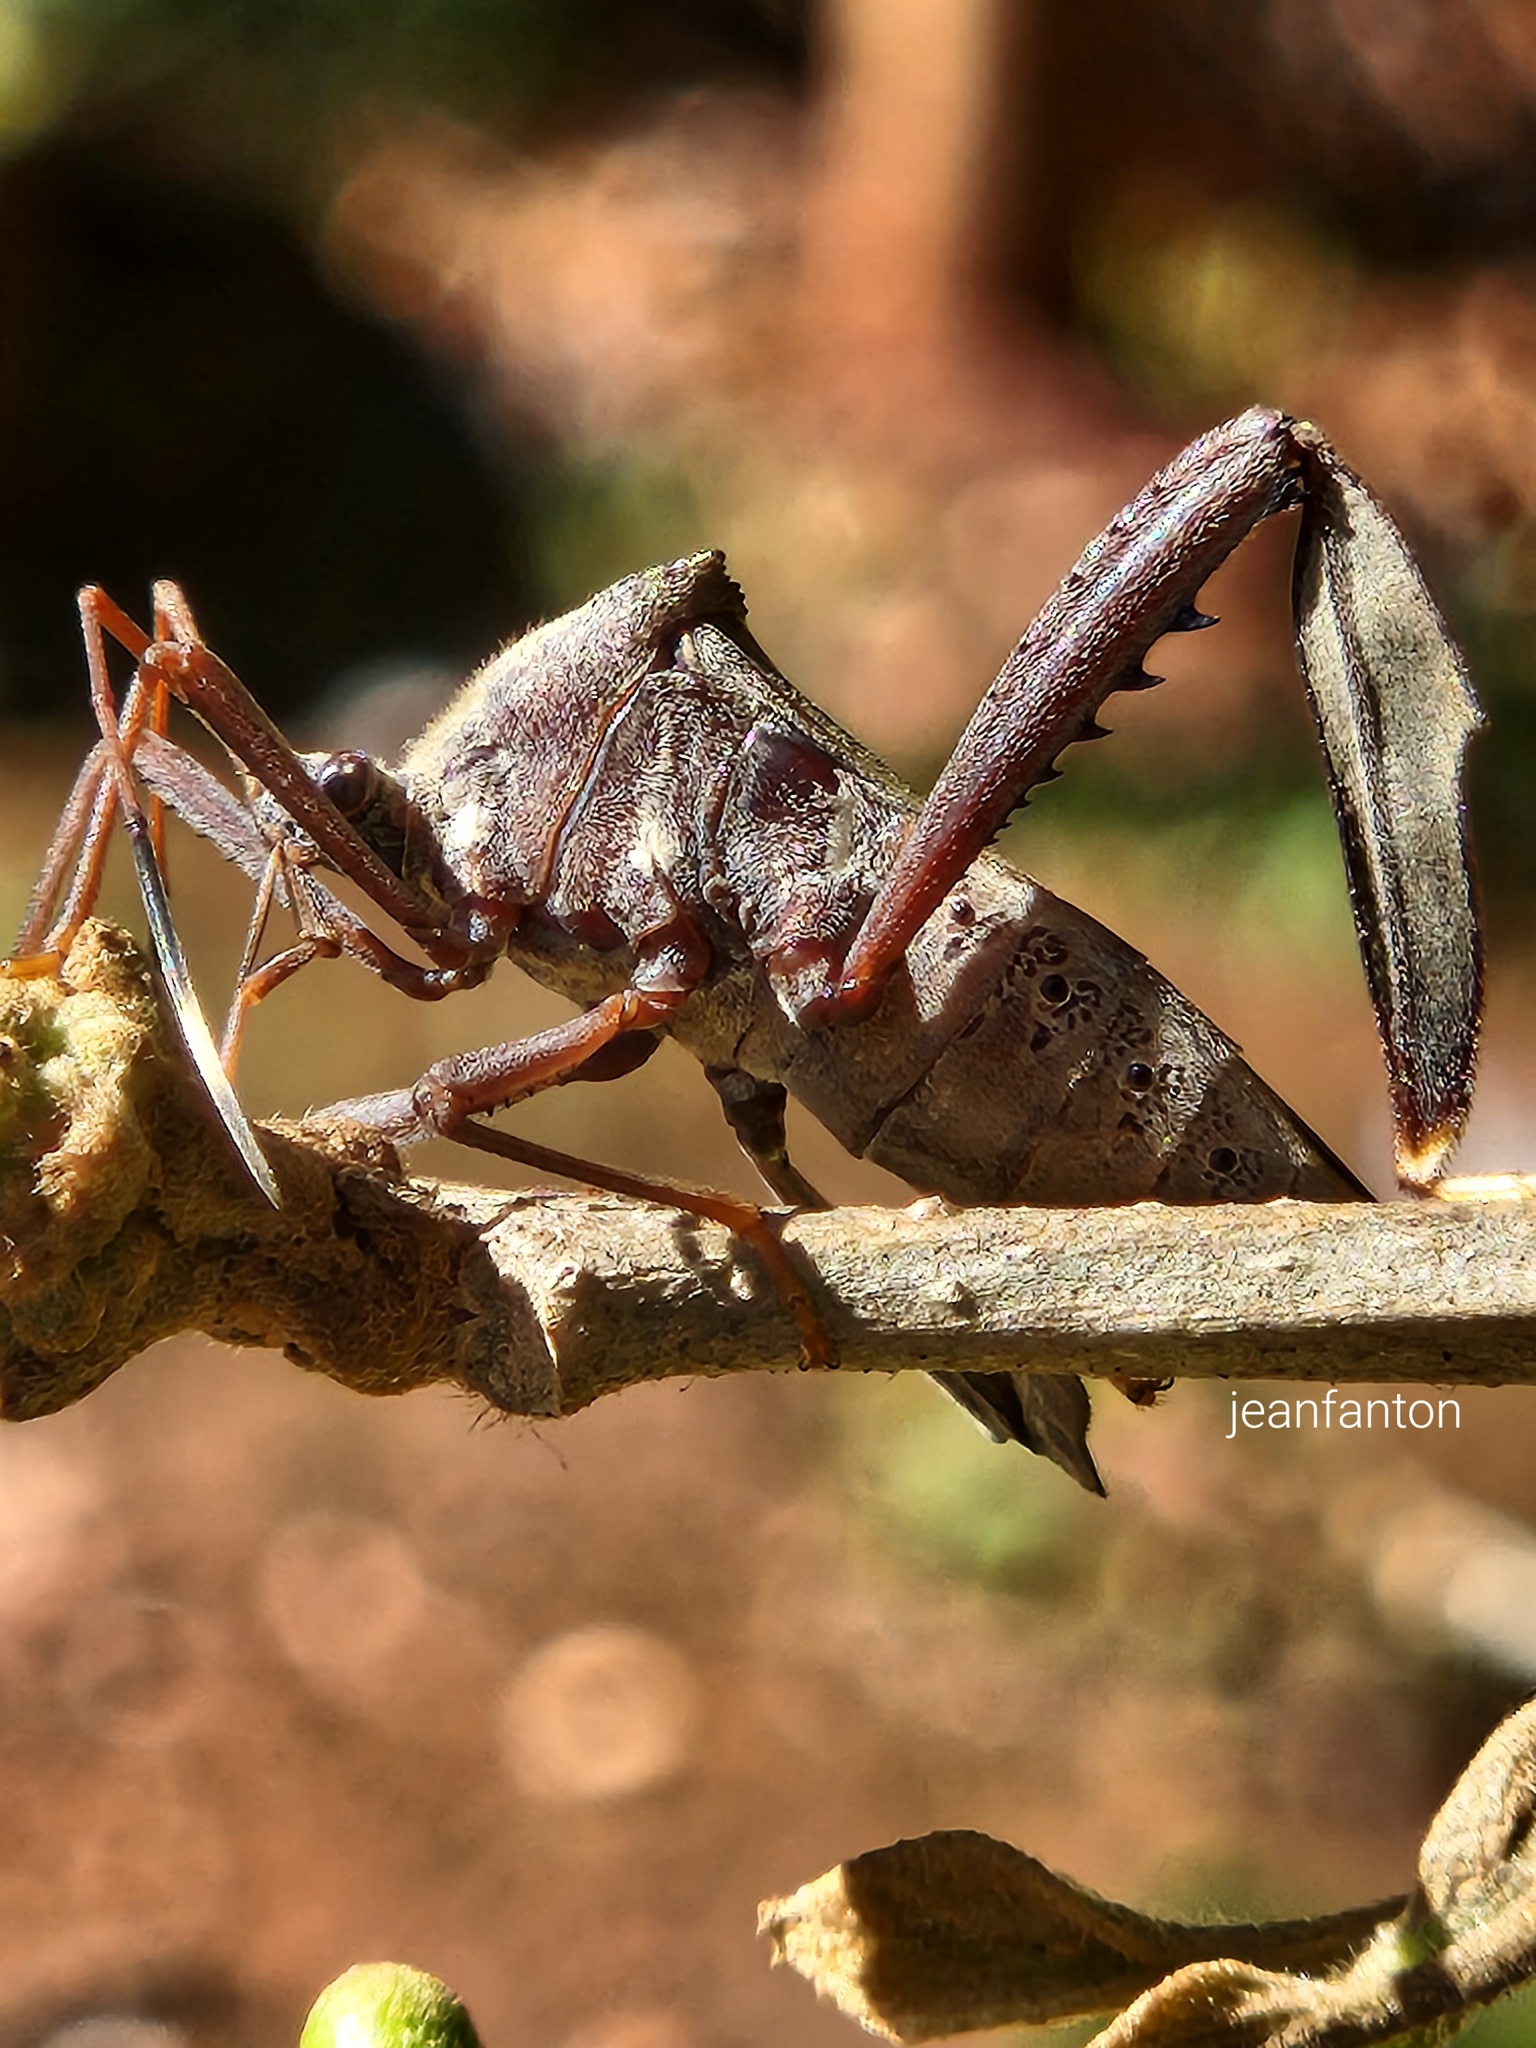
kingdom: Animalia
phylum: Arthropoda
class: Insecta
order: Hemiptera
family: Coreidae
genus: Acanthocephala
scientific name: Acanthocephala parensis
